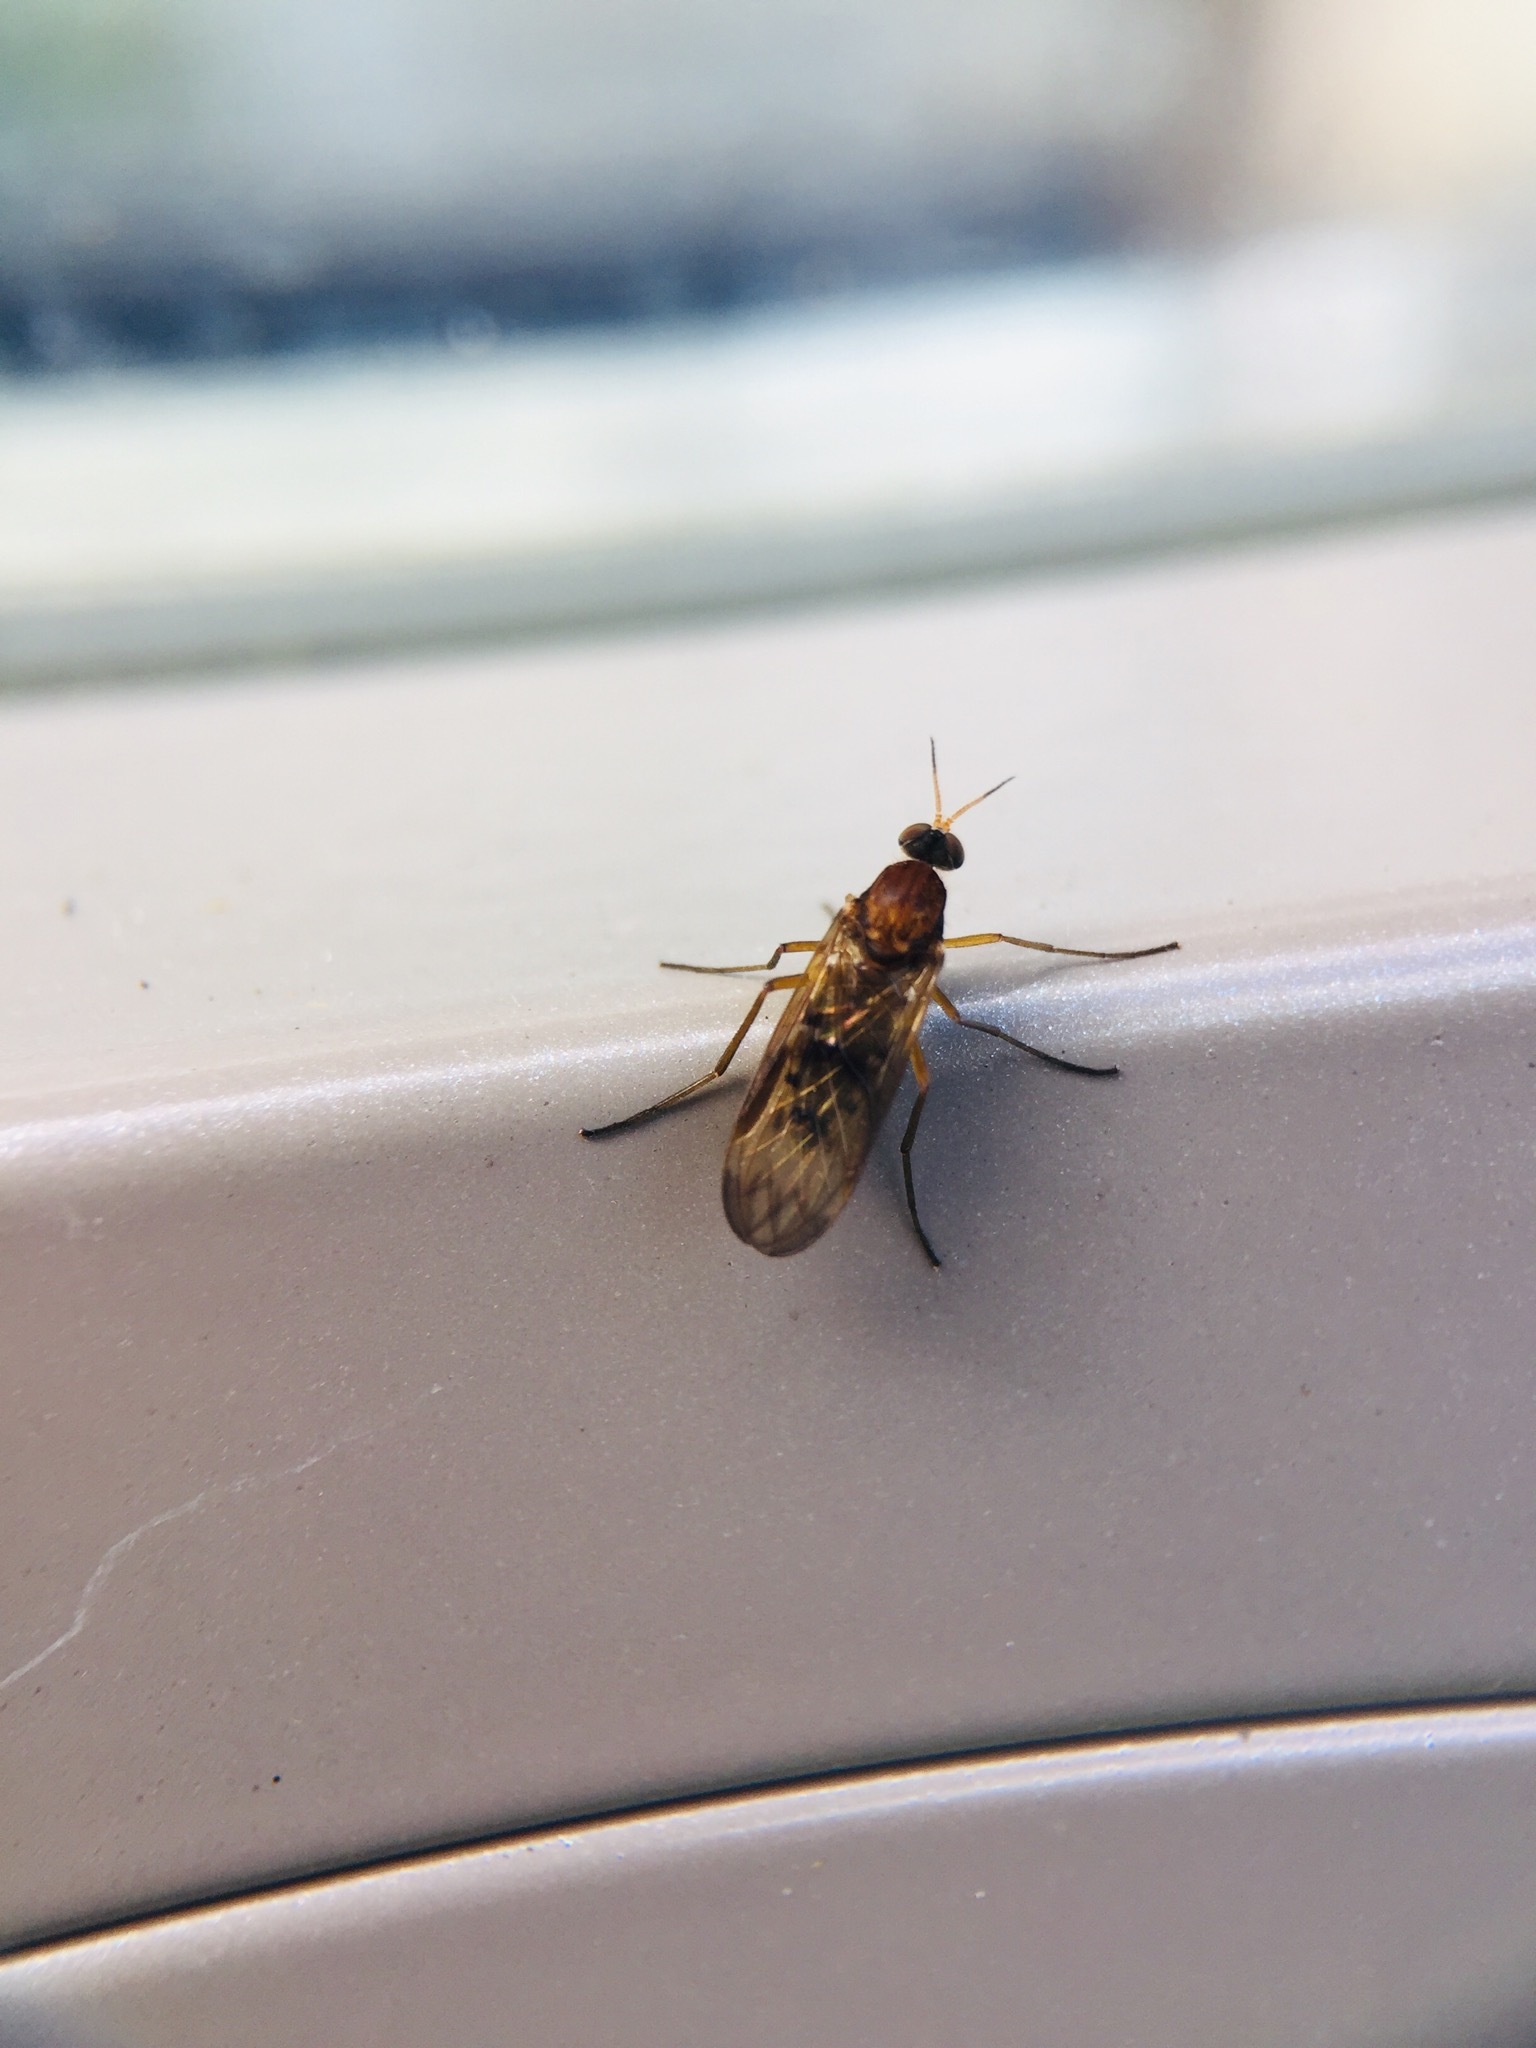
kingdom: Animalia
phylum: Arthropoda
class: Insecta
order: Diptera
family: Anisopodidae
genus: Sylvicola
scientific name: Sylvicola neozelandicus
